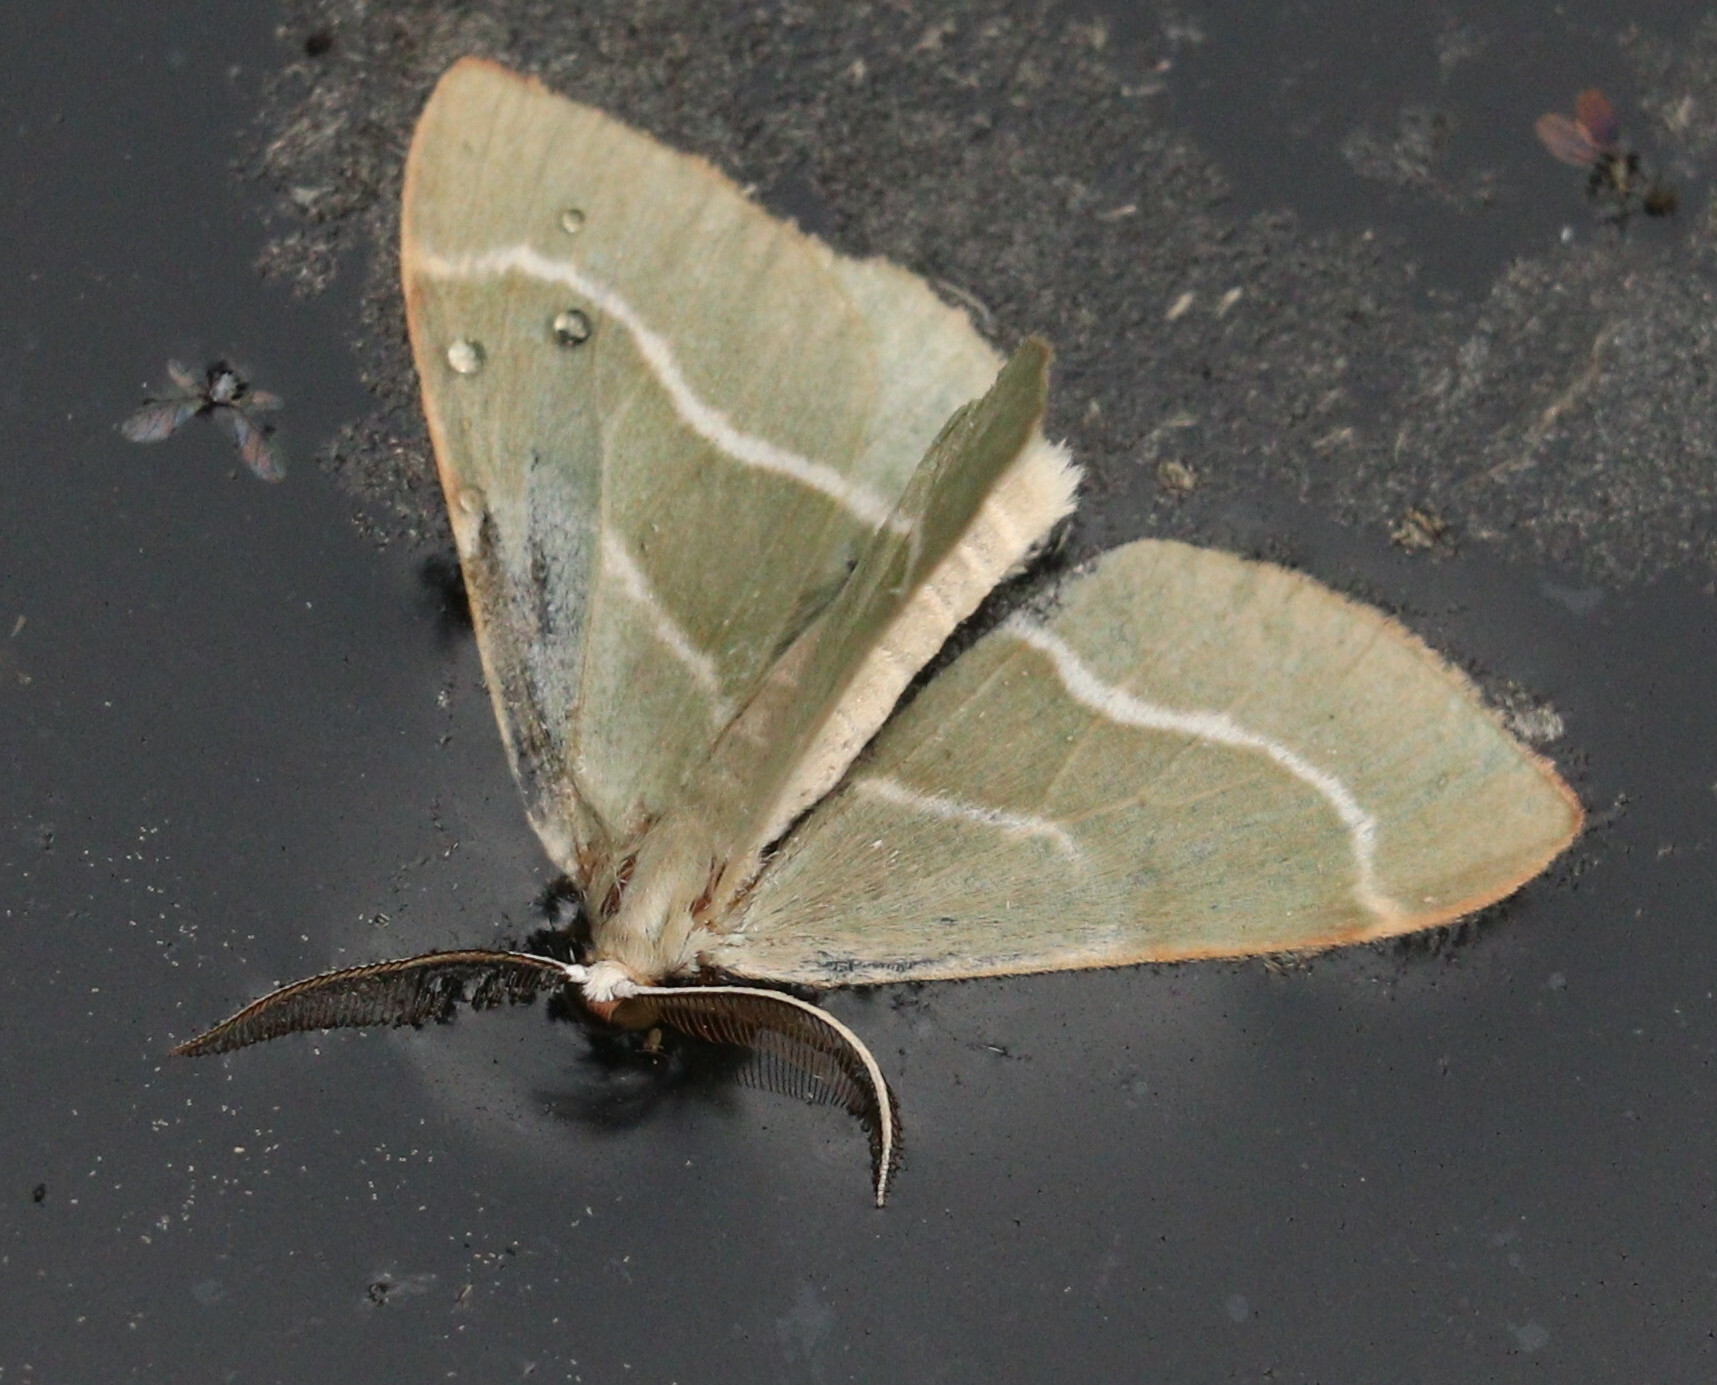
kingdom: Animalia
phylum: Arthropoda
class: Insecta
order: Lepidoptera
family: Geometridae
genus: Hylaea
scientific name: Hylaea fasciaria
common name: Barred red
